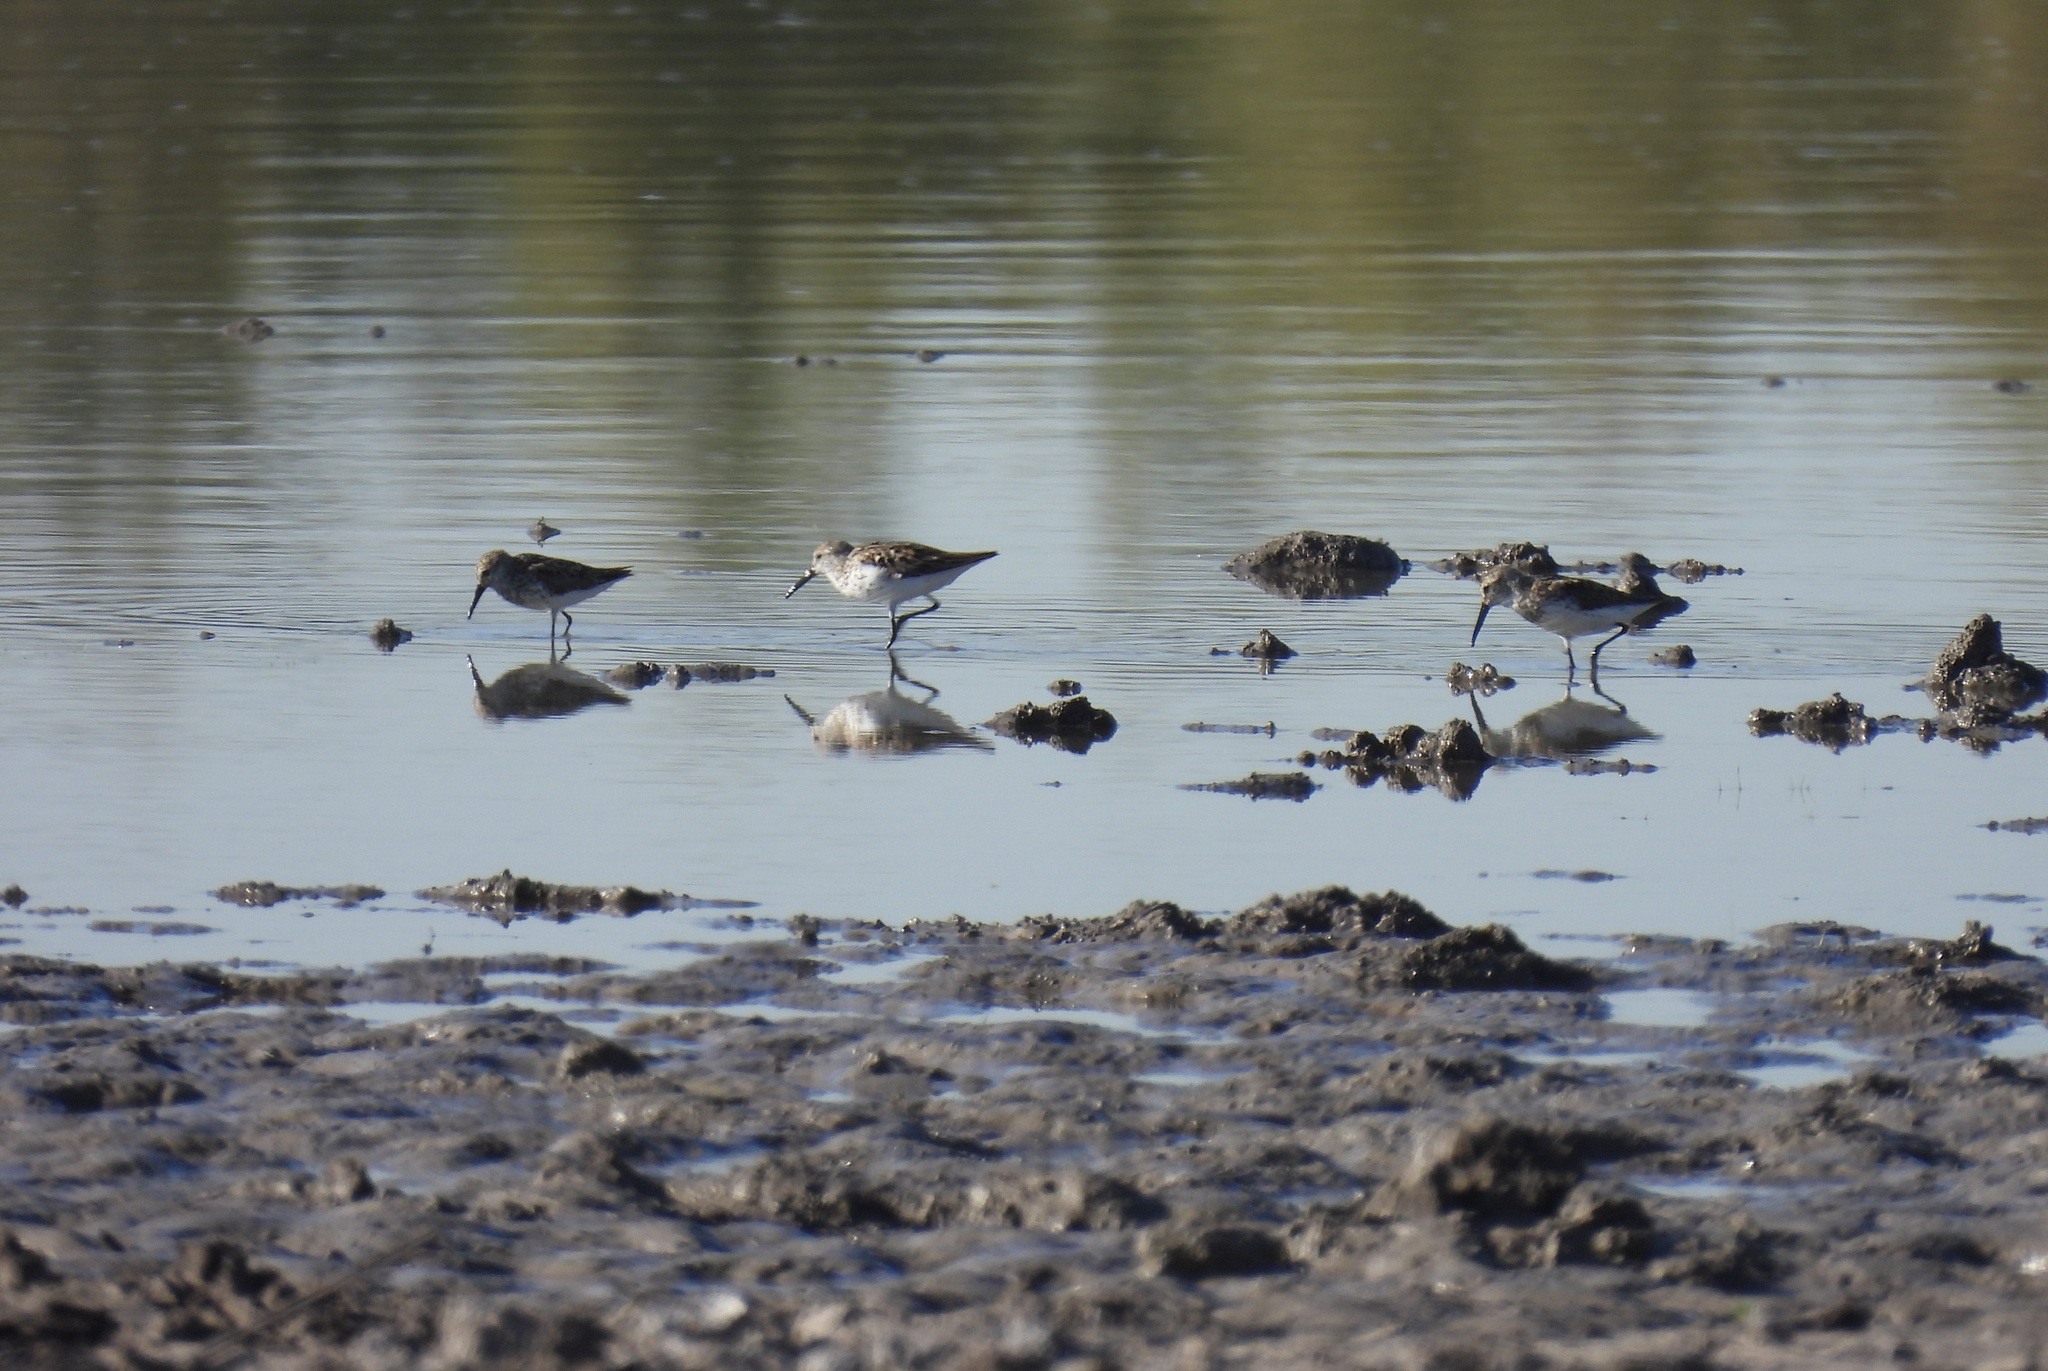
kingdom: Animalia
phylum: Chordata
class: Aves
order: Charadriiformes
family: Scolopacidae
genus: Calidris
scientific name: Calidris mauri
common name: Western sandpiper
